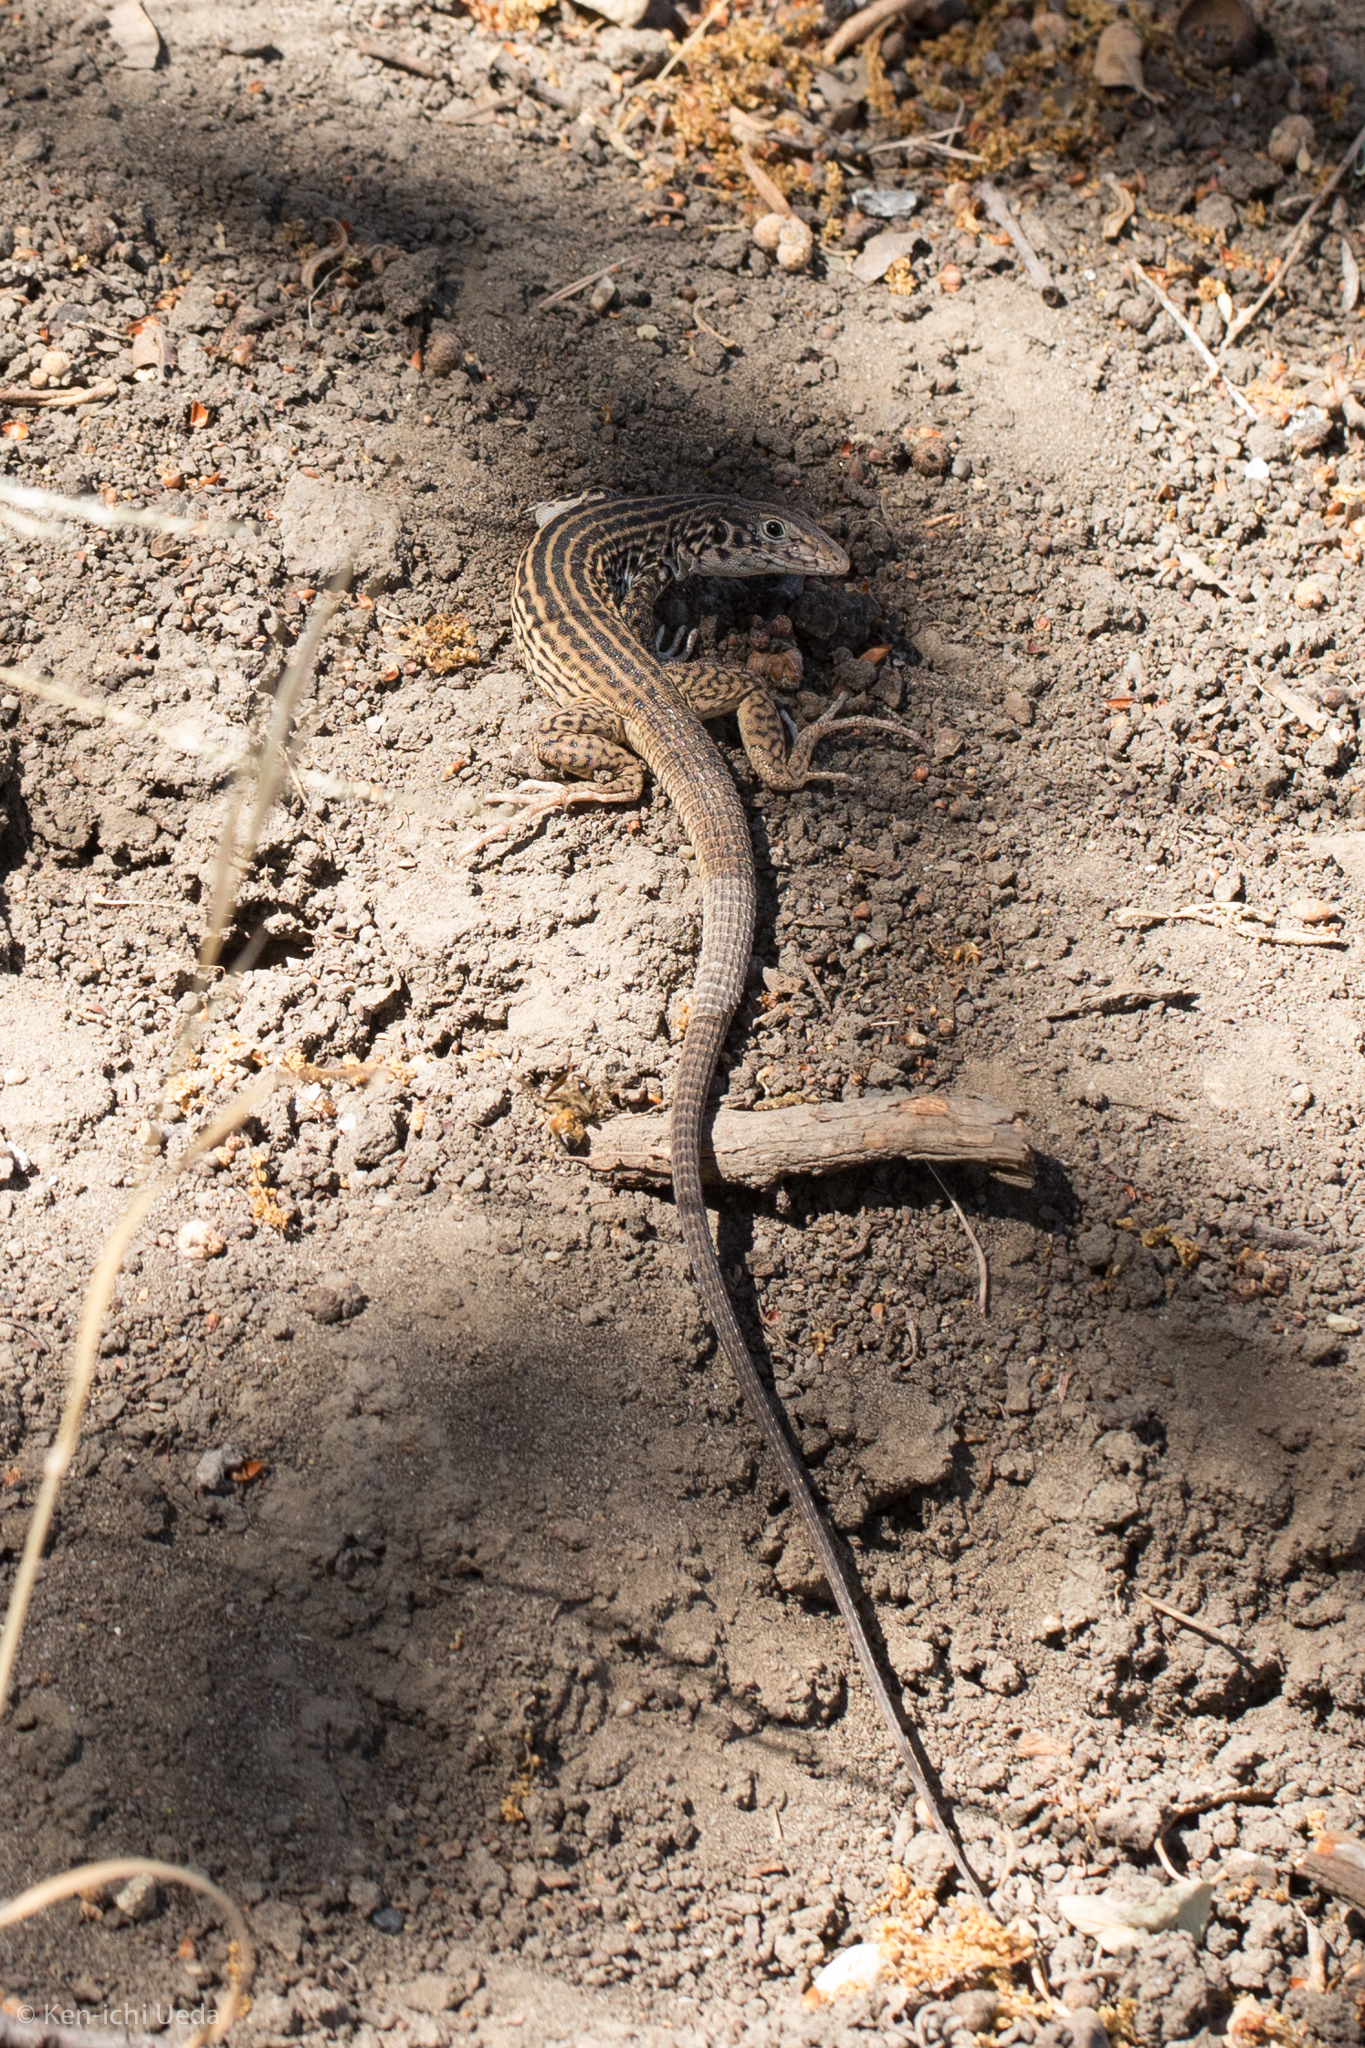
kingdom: Animalia
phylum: Chordata
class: Squamata
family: Teiidae
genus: Aspidoscelis
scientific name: Aspidoscelis tigris
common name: Tiger whiptail
